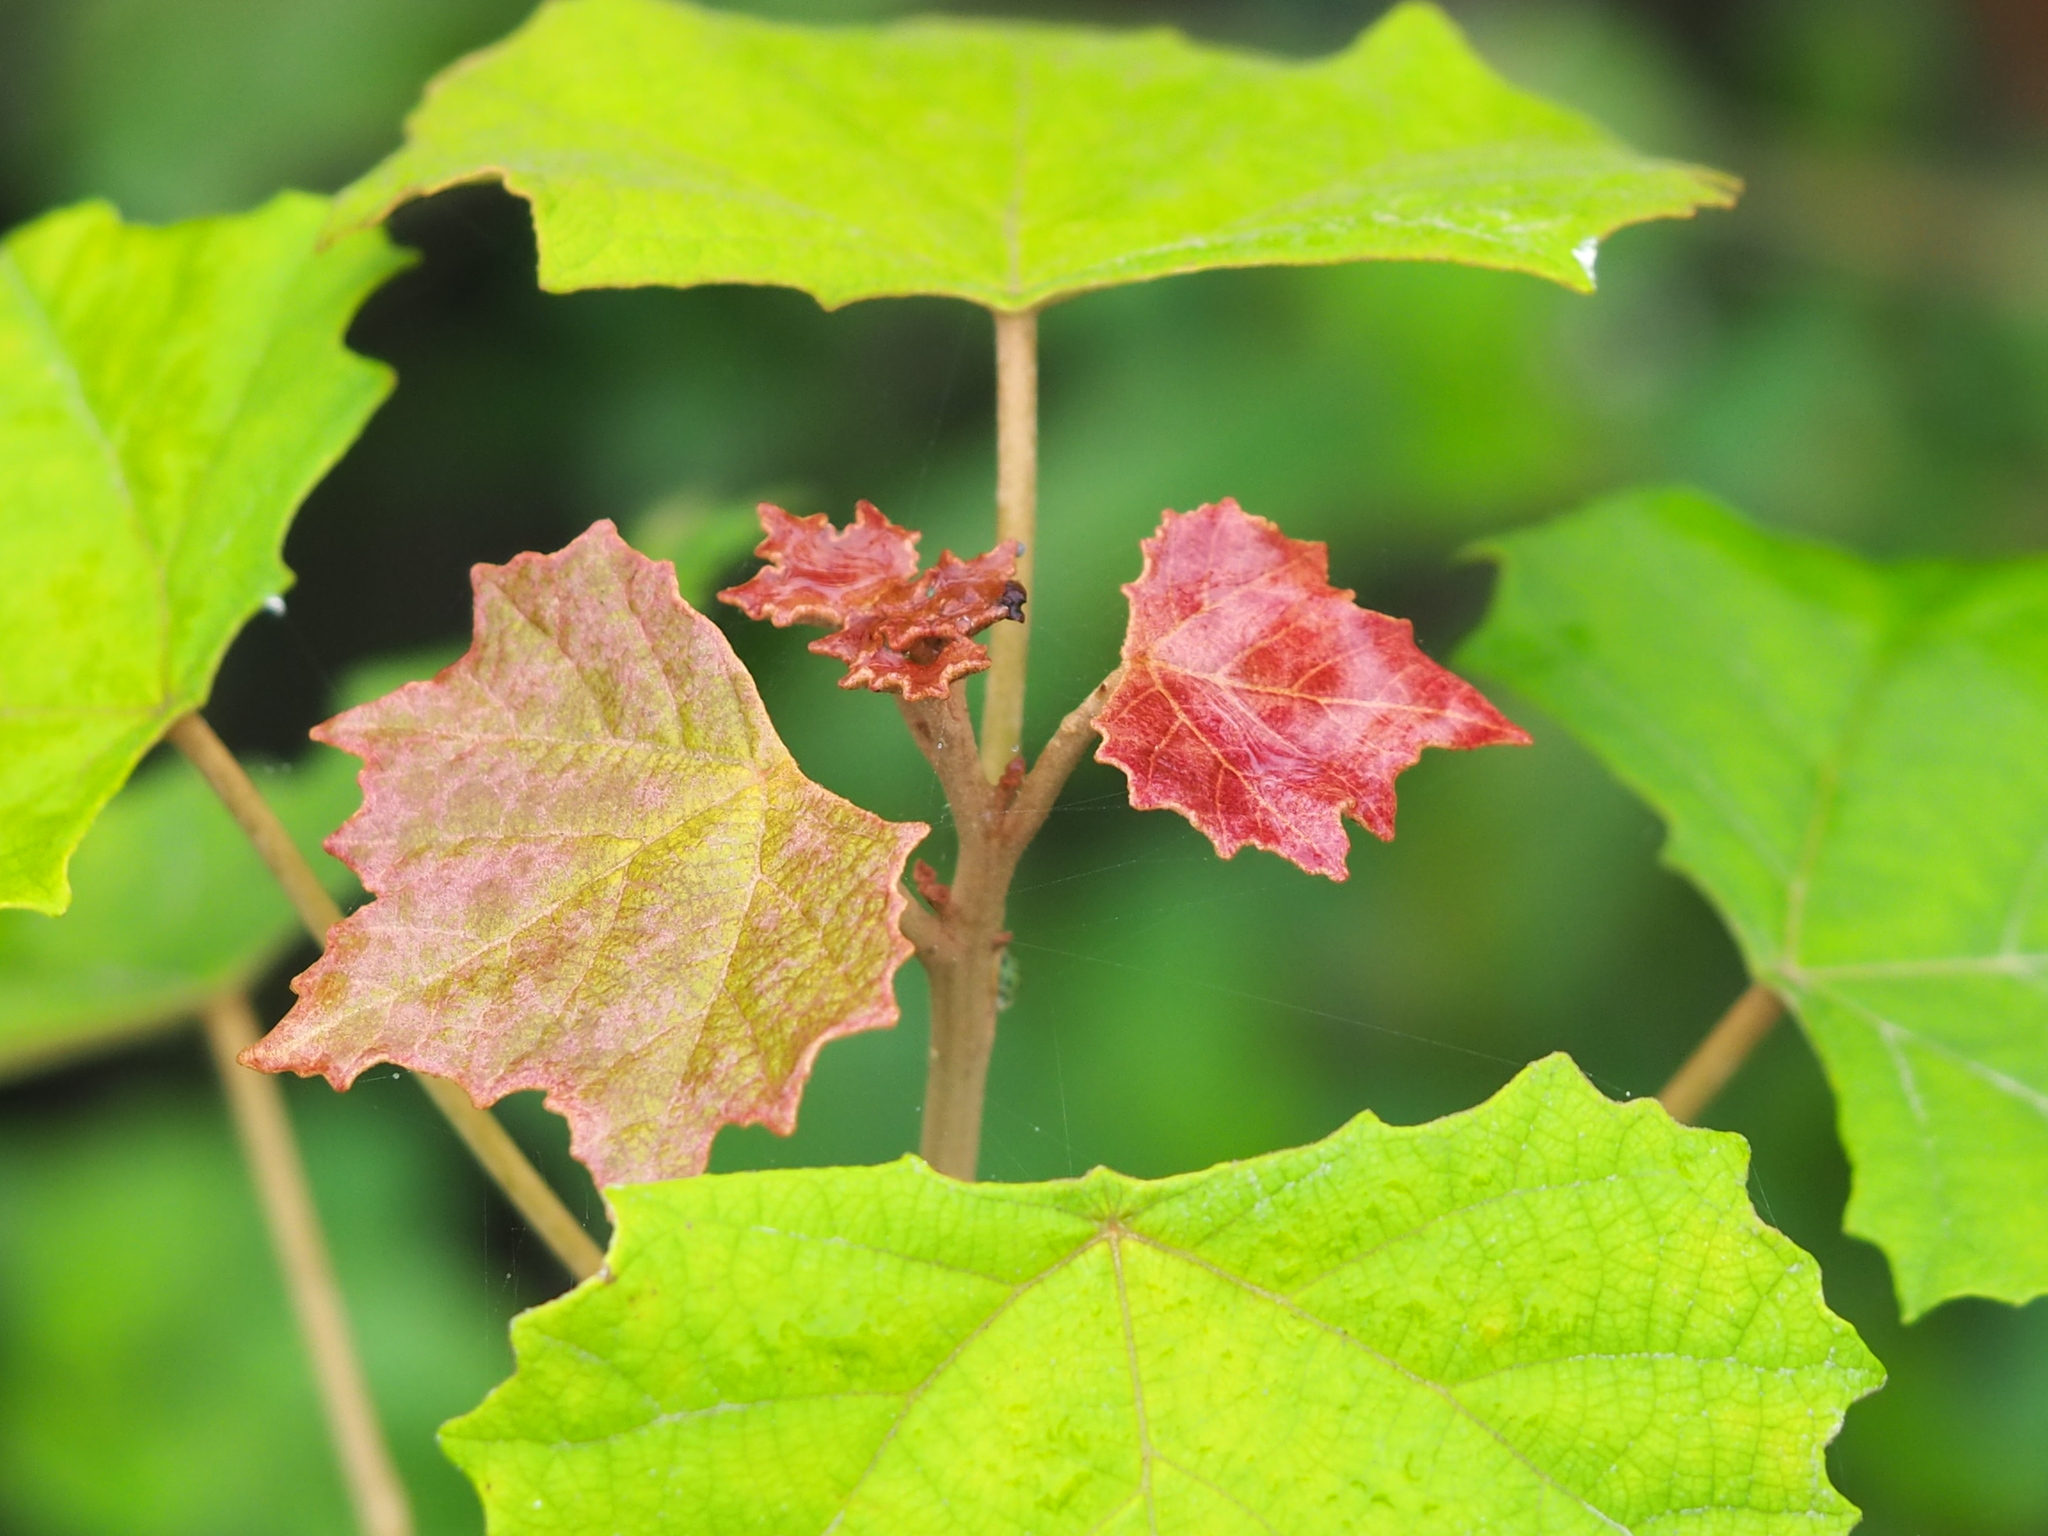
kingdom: Plantae
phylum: Tracheophyta
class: Magnoliopsida
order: Malpighiales
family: Euphorbiaceae
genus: Mallotus
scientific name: Mallotus paniculatus
